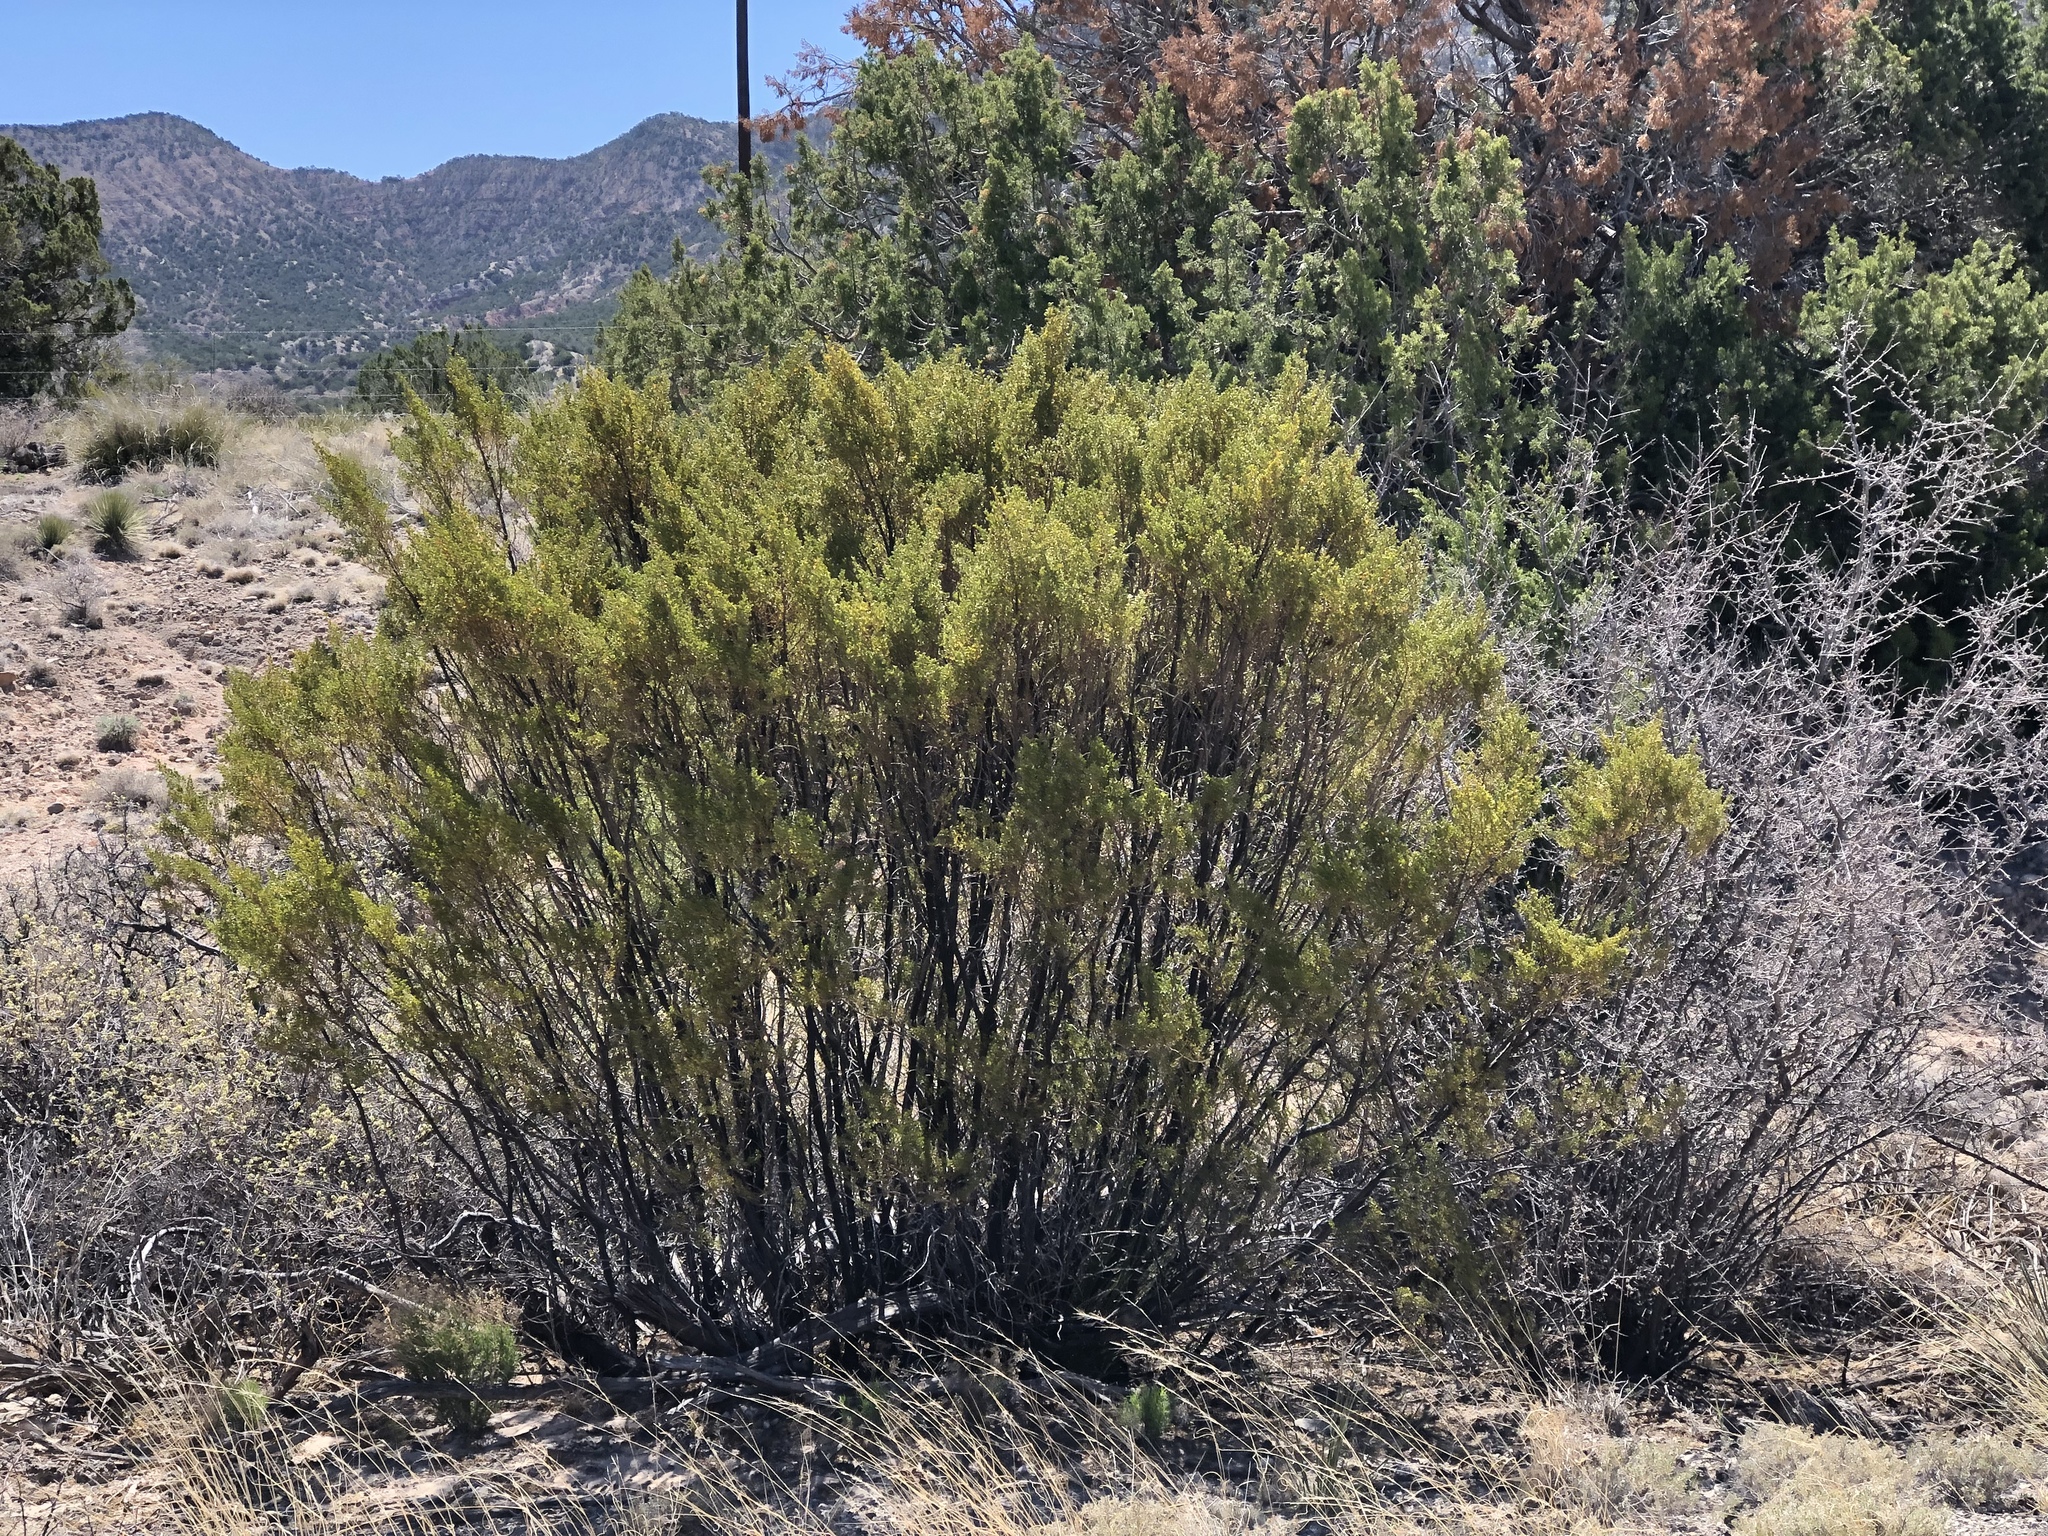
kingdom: Plantae
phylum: Tracheophyta
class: Magnoliopsida
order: Zygophyllales
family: Zygophyllaceae
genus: Larrea
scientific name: Larrea tridentata
